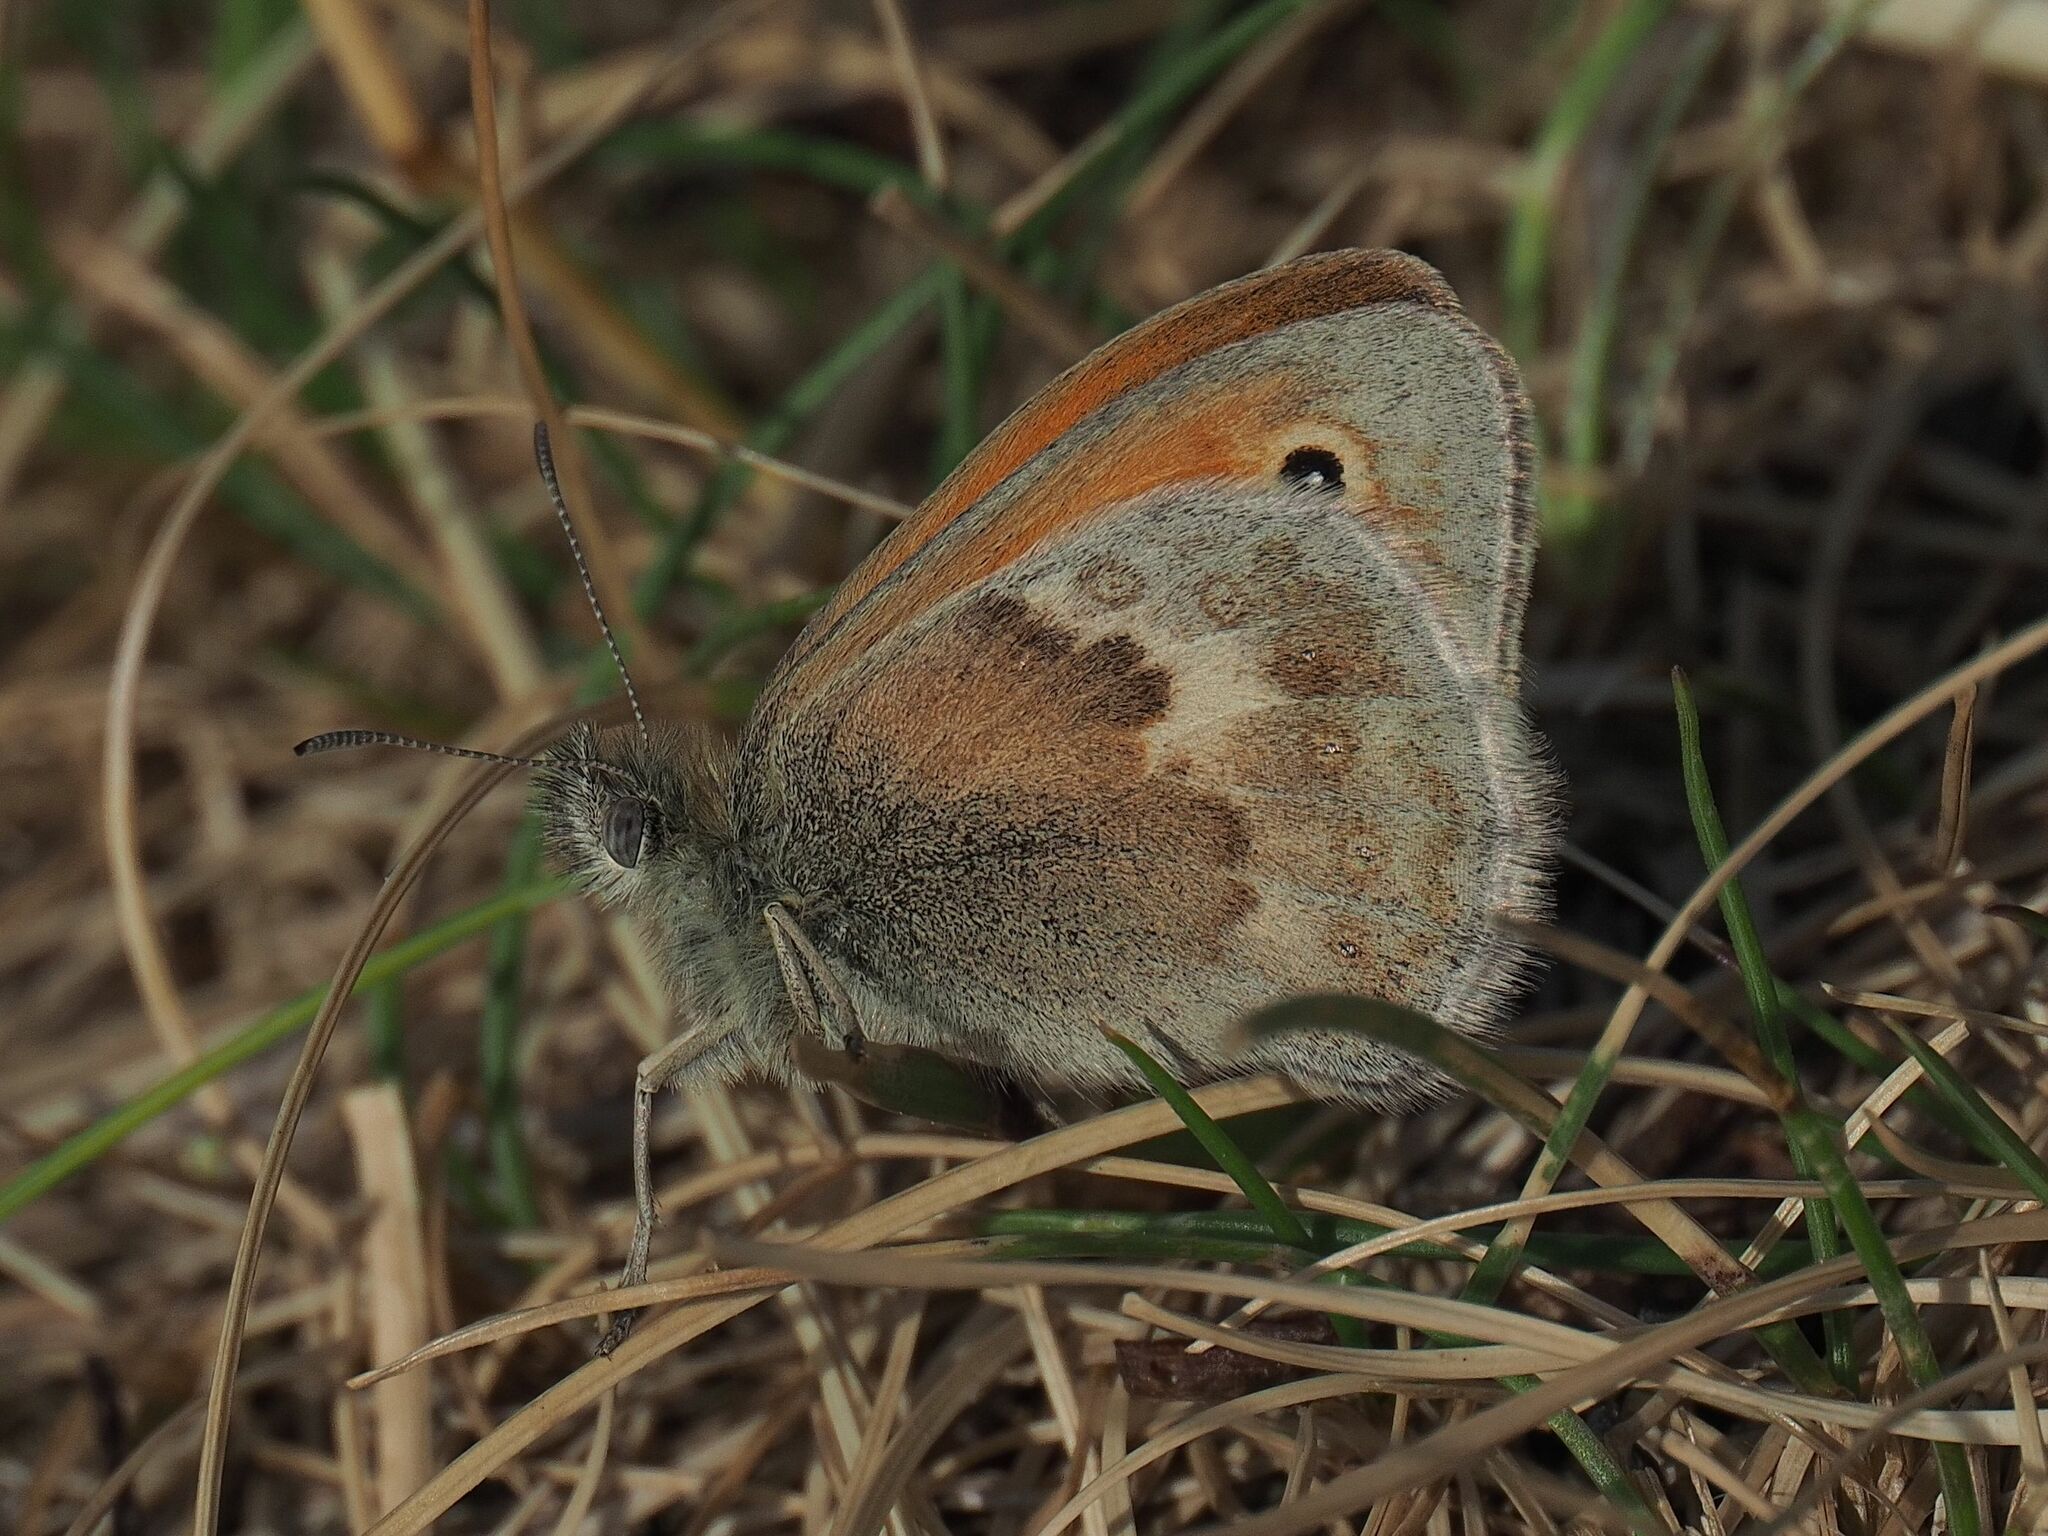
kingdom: Animalia
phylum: Arthropoda
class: Insecta
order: Lepidoptera
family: Nymphalidae
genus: Coenonympha
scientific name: Coenonympha pamphilus
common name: Small heath
